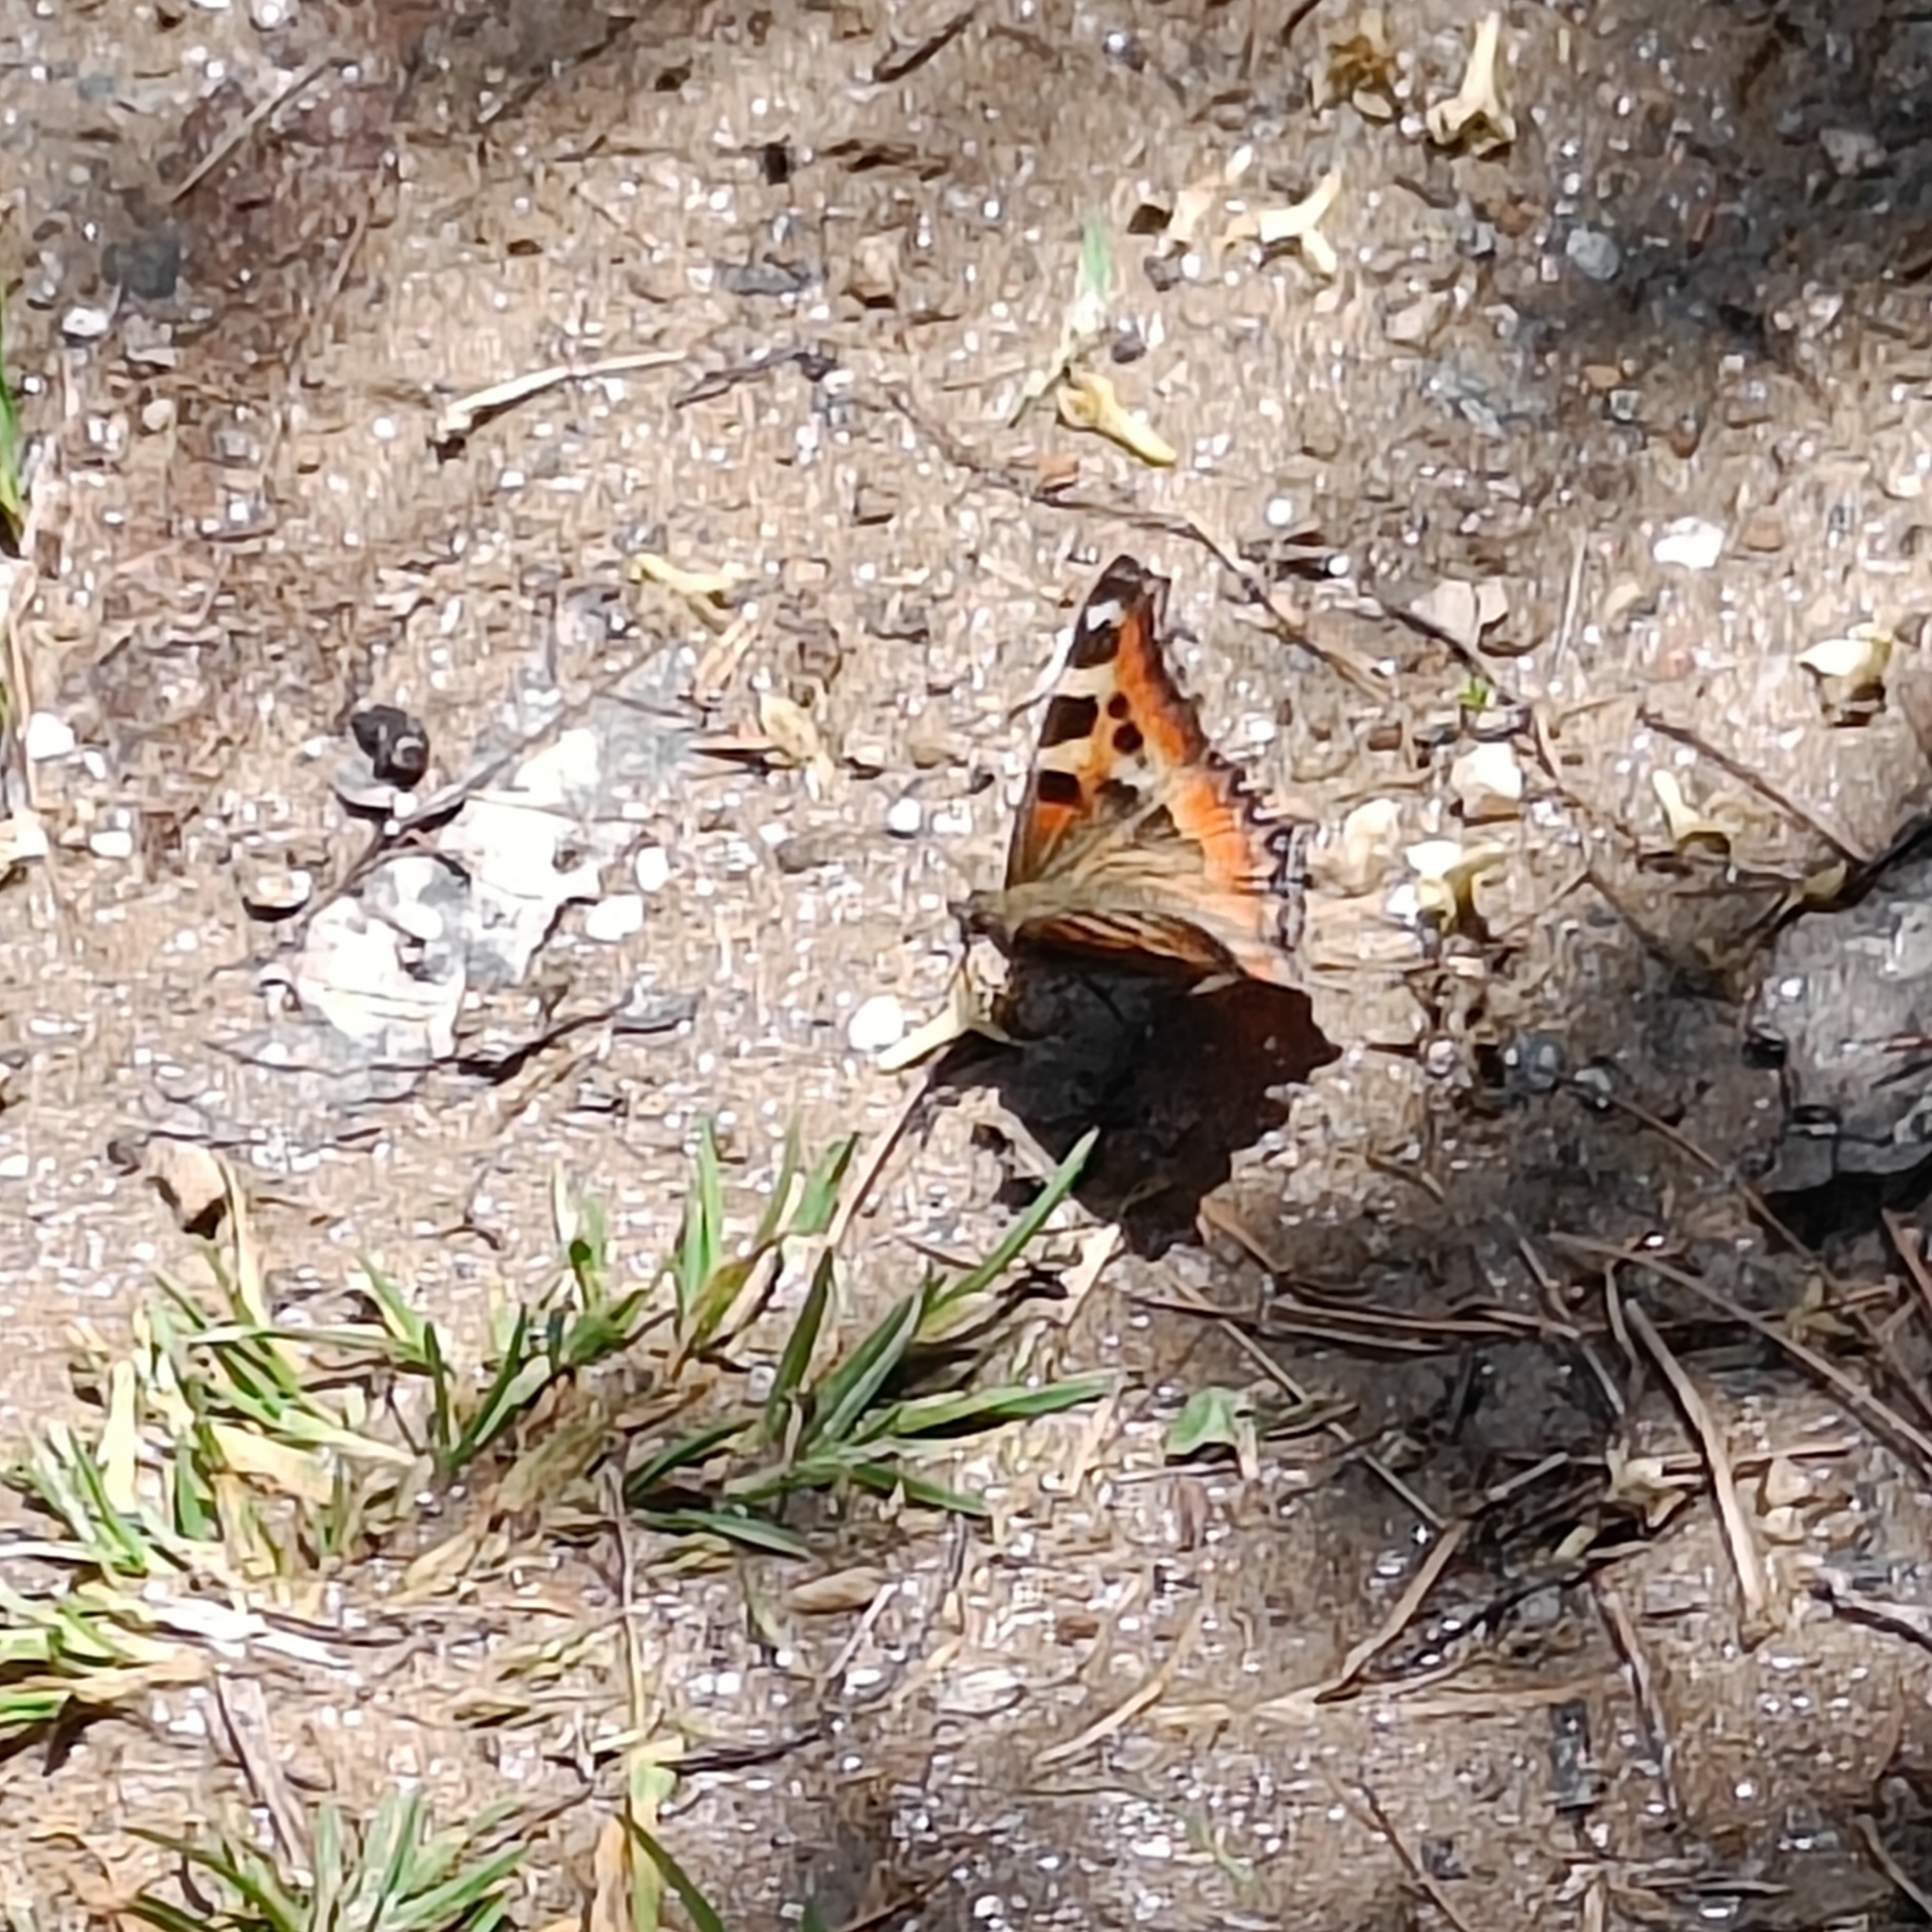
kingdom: Animalia
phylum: Arthropoda
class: Insecta
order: Lepidoptera
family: Nymphalidae
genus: Aglais
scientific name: Aglais caschmirensis
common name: Indian tortoiseshell
